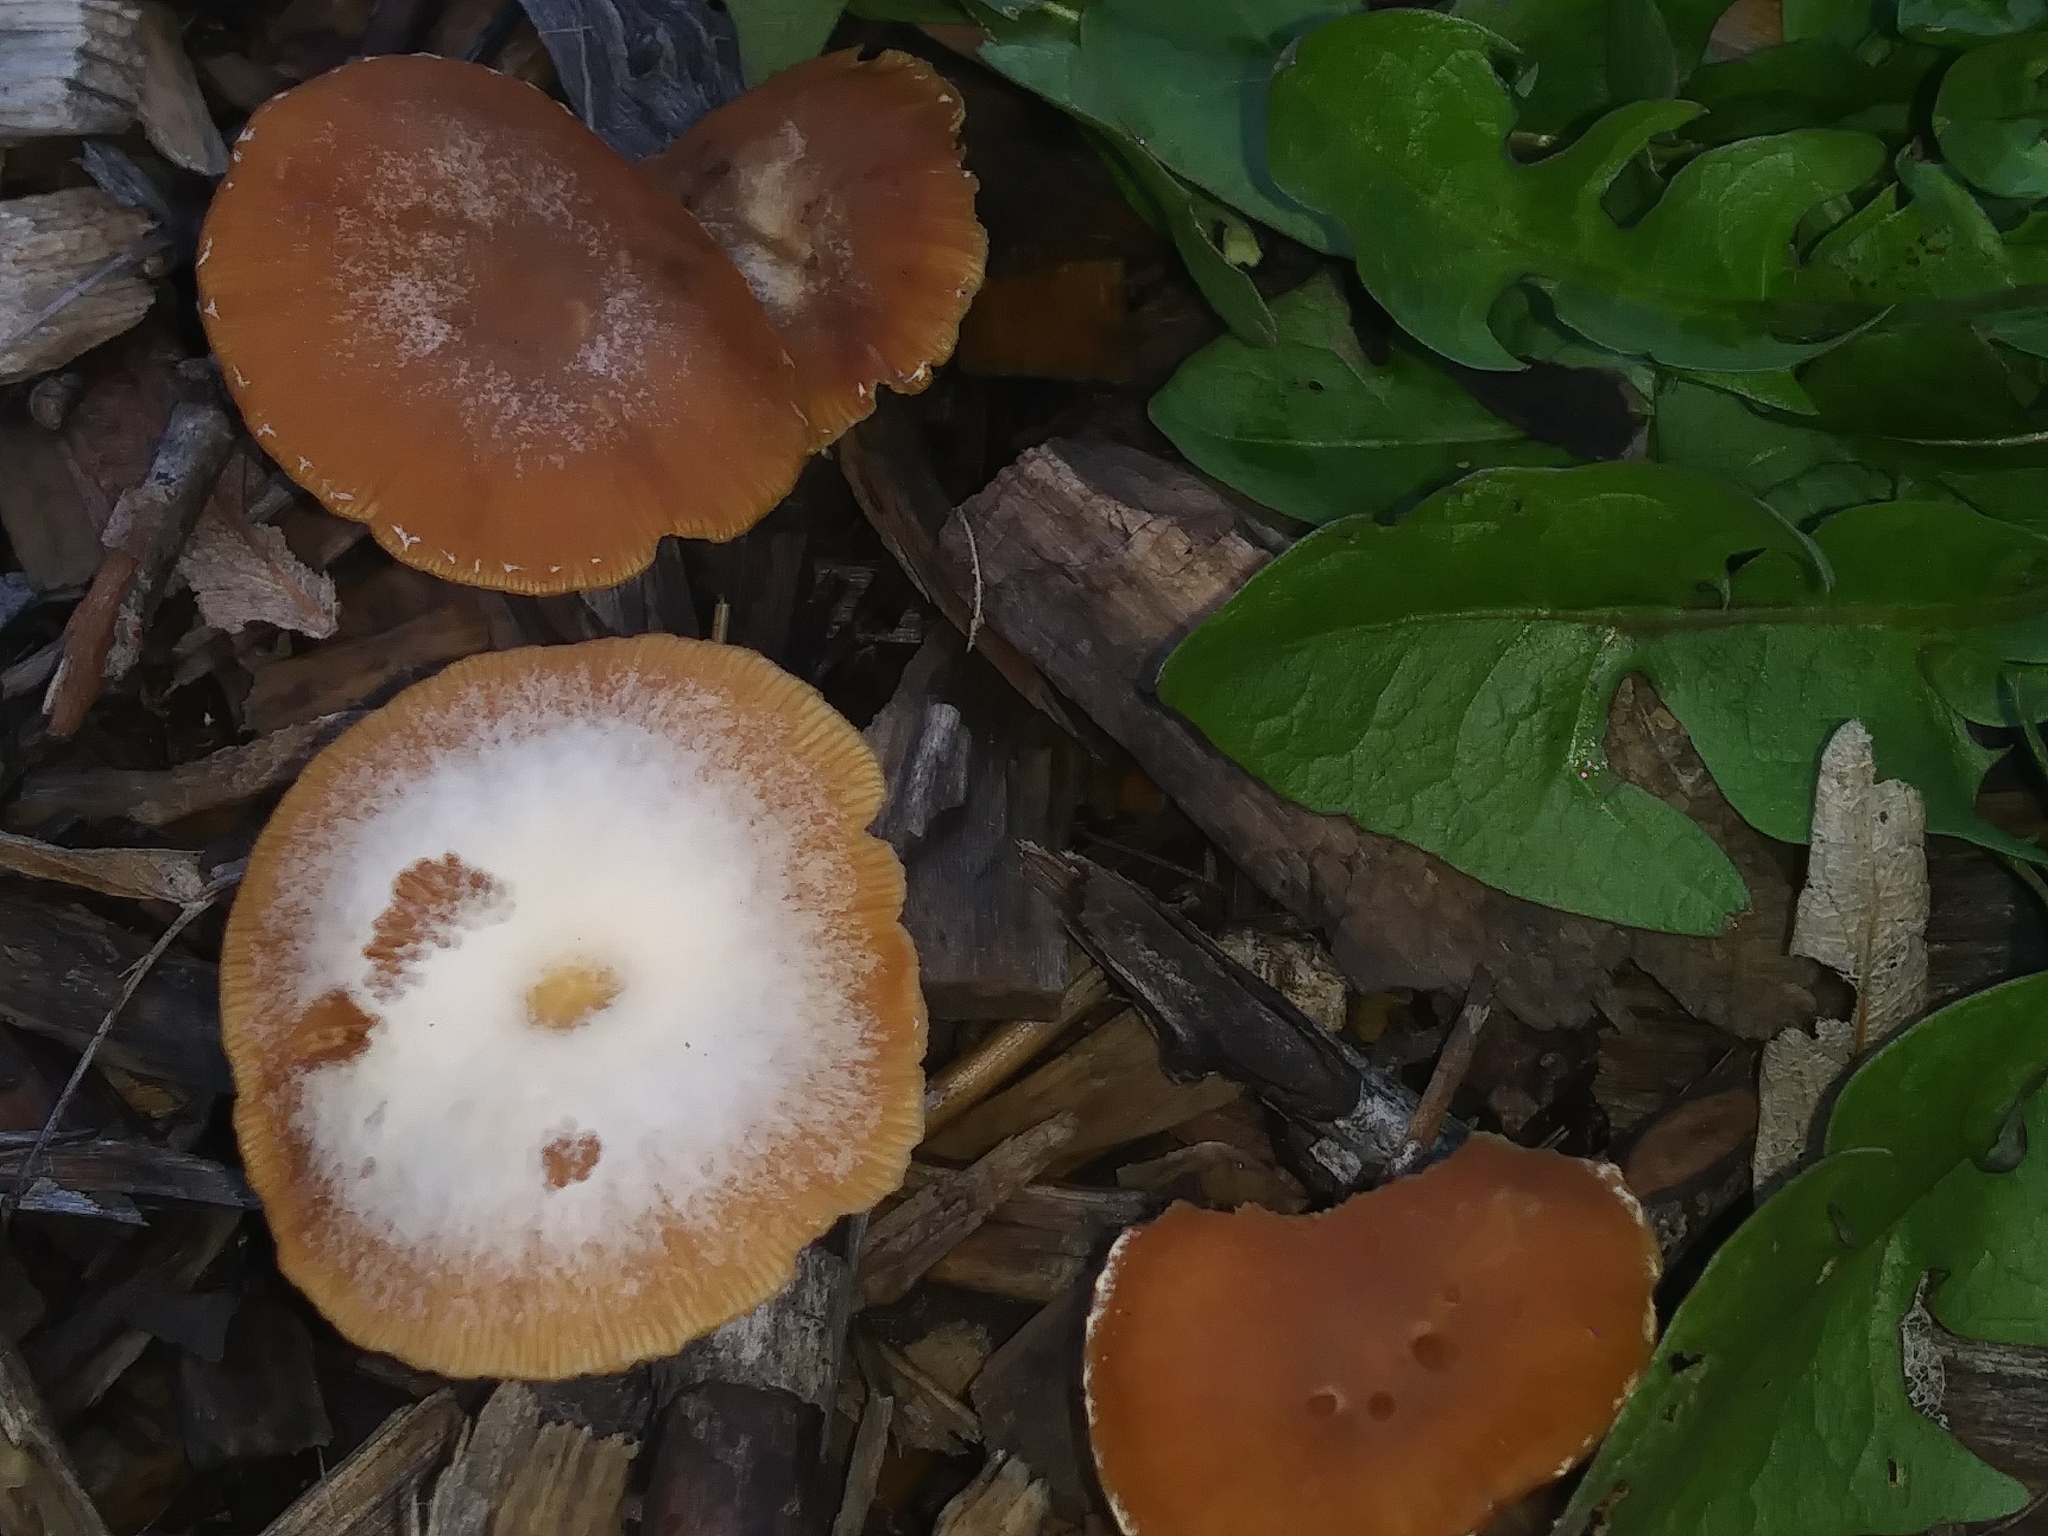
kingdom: Fungi
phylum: Basidiomycota
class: Agaricomycetes
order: Agaricales
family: Tubariaceae
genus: Tubaria
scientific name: Tubaria furfuracea
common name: Scurfy twiglet
